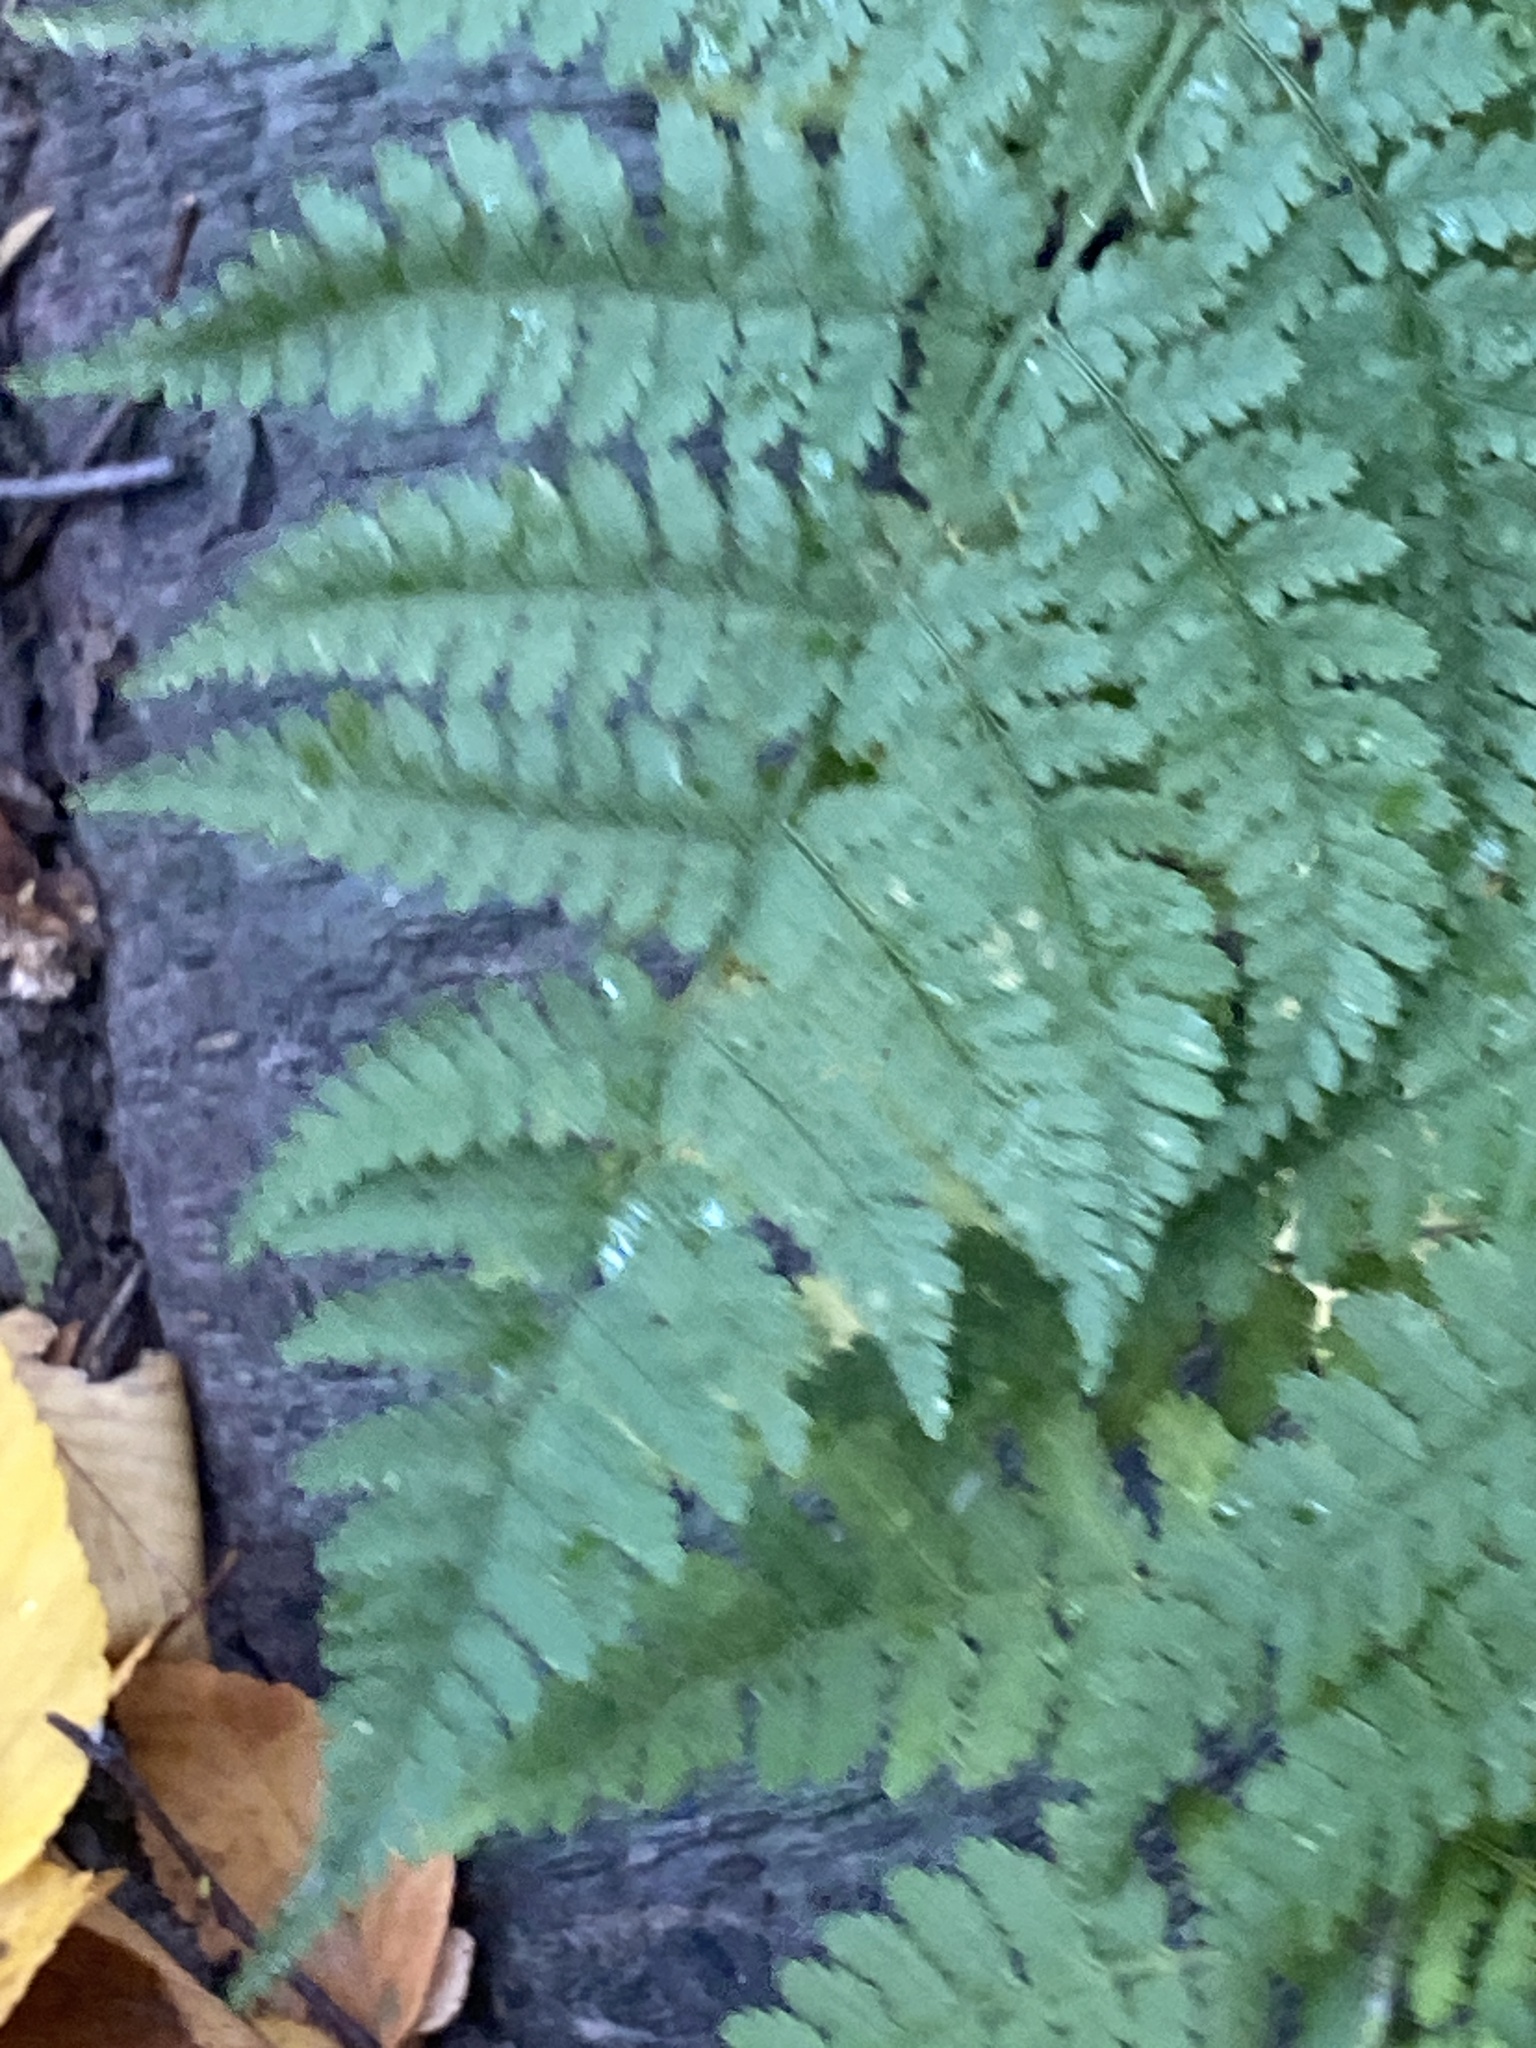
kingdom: Plantae
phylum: Tracheophyta
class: Polypodiopsida
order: Polypodiales
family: Dryopteridaceae
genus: Dryopteris
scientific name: Dryopteris
